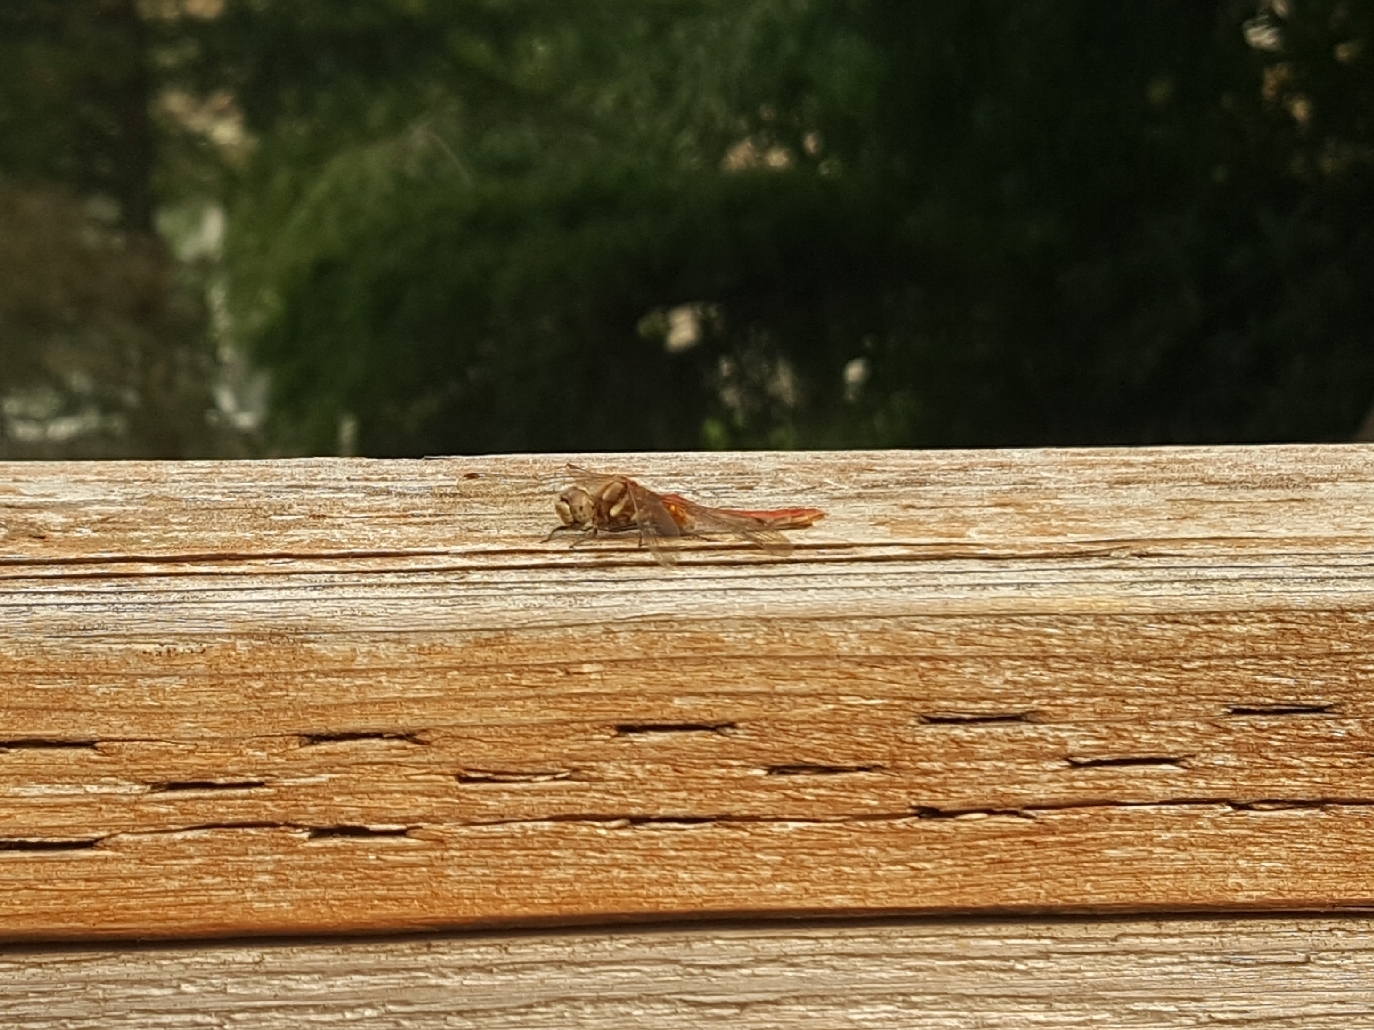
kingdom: Animalia
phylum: Arthropoda
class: Insecta
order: Odonata
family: Libellulidae
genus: Sympetrum
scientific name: Sympetrum pallipes
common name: Striped meadowhawk
